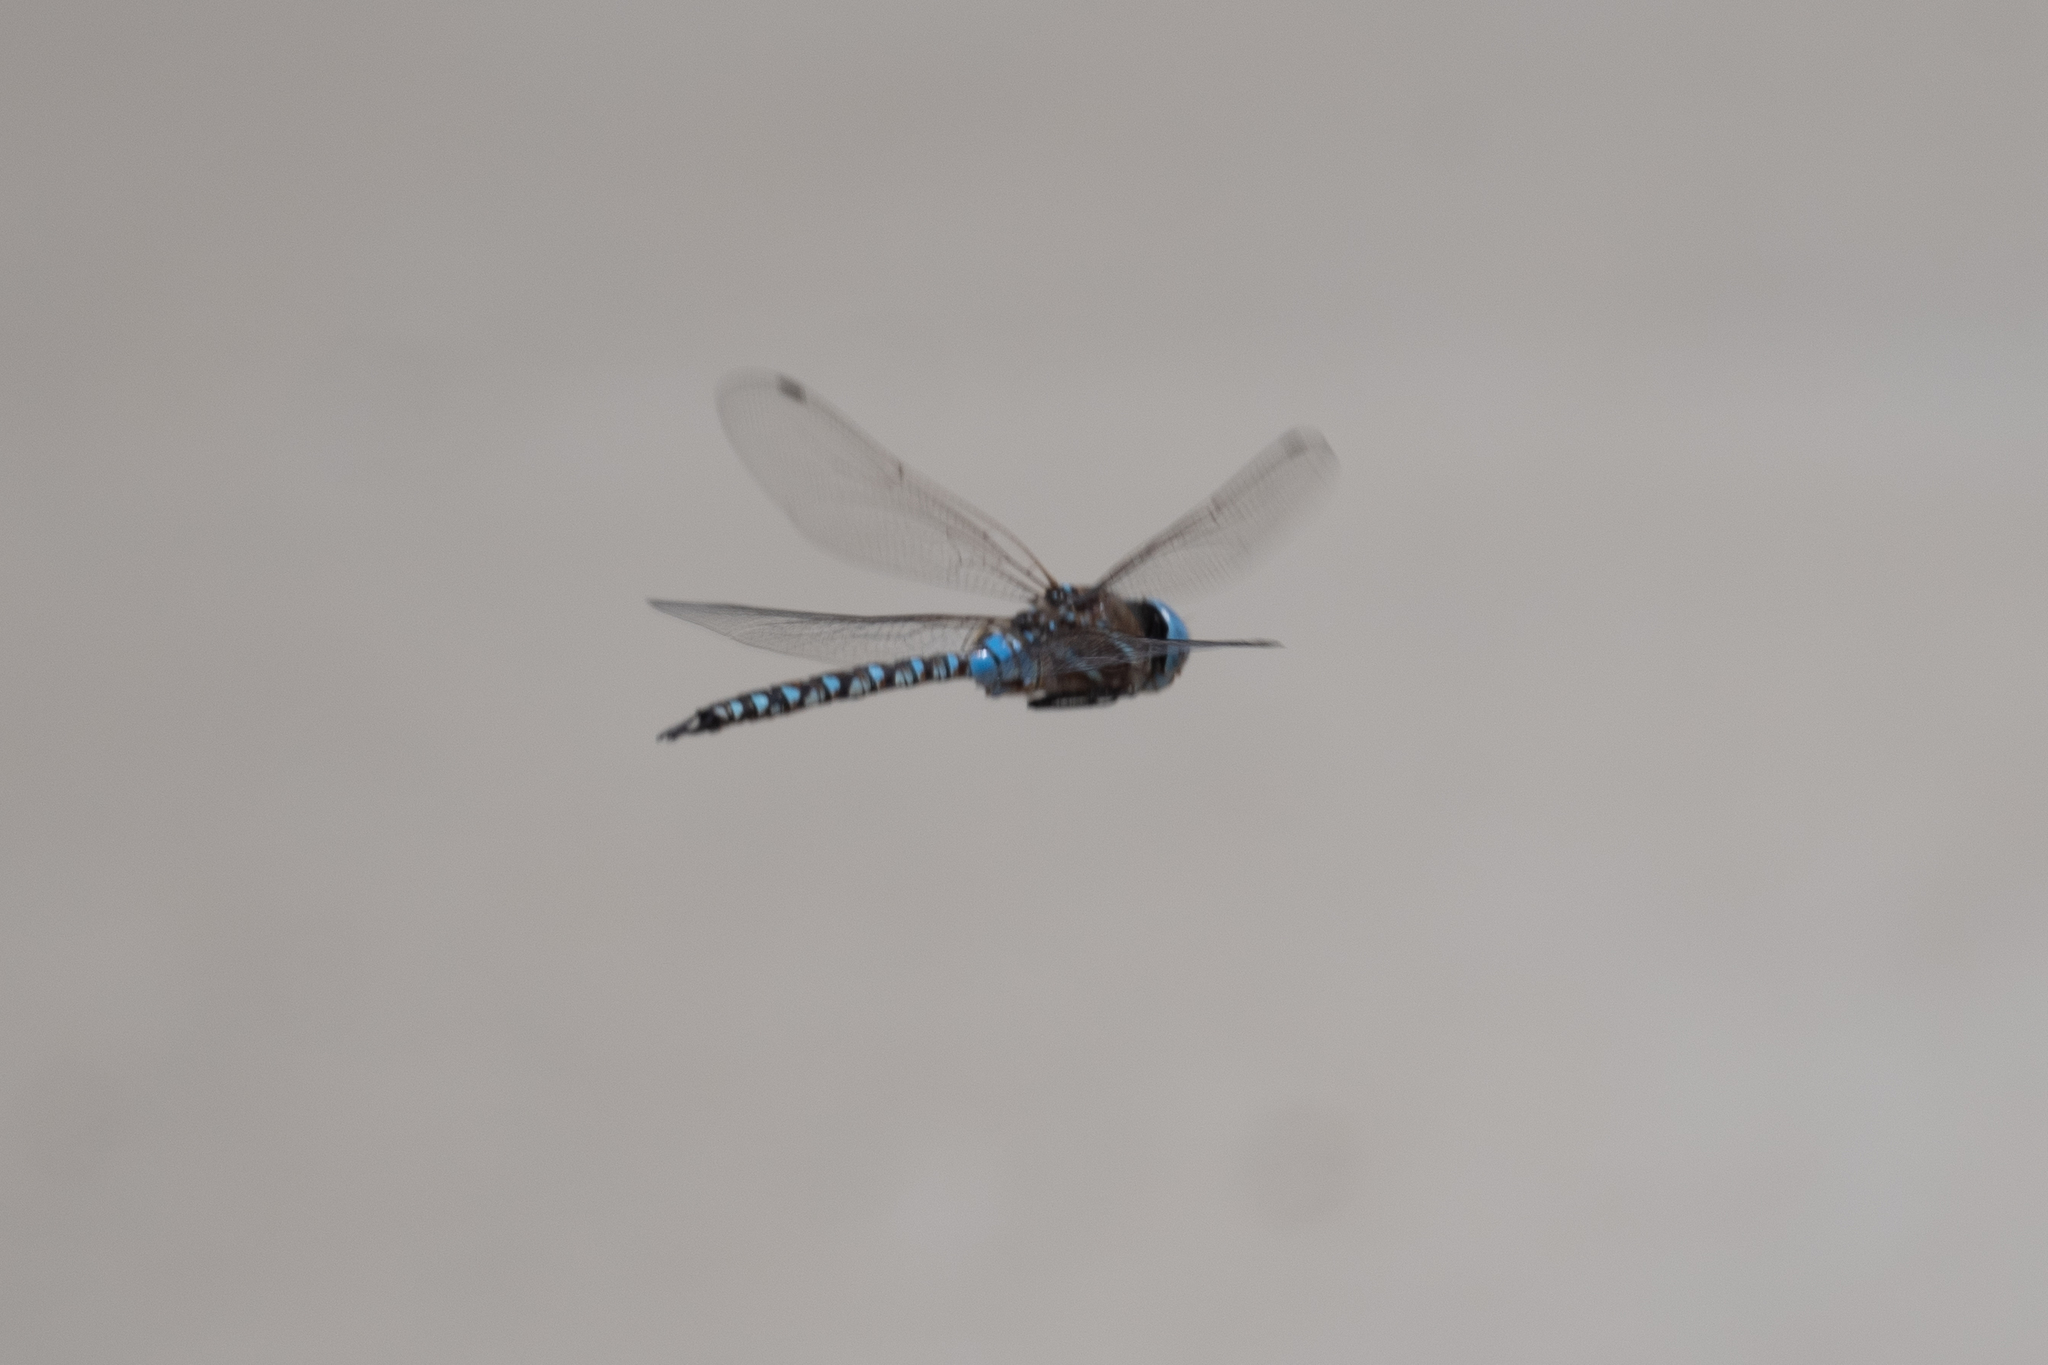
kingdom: Animalia
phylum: Arthropoda
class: Insecta
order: Odonata
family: Aeshnidae
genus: Rhionaeschna
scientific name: Rhionaeschna multicolor
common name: Blue-eyed darner
